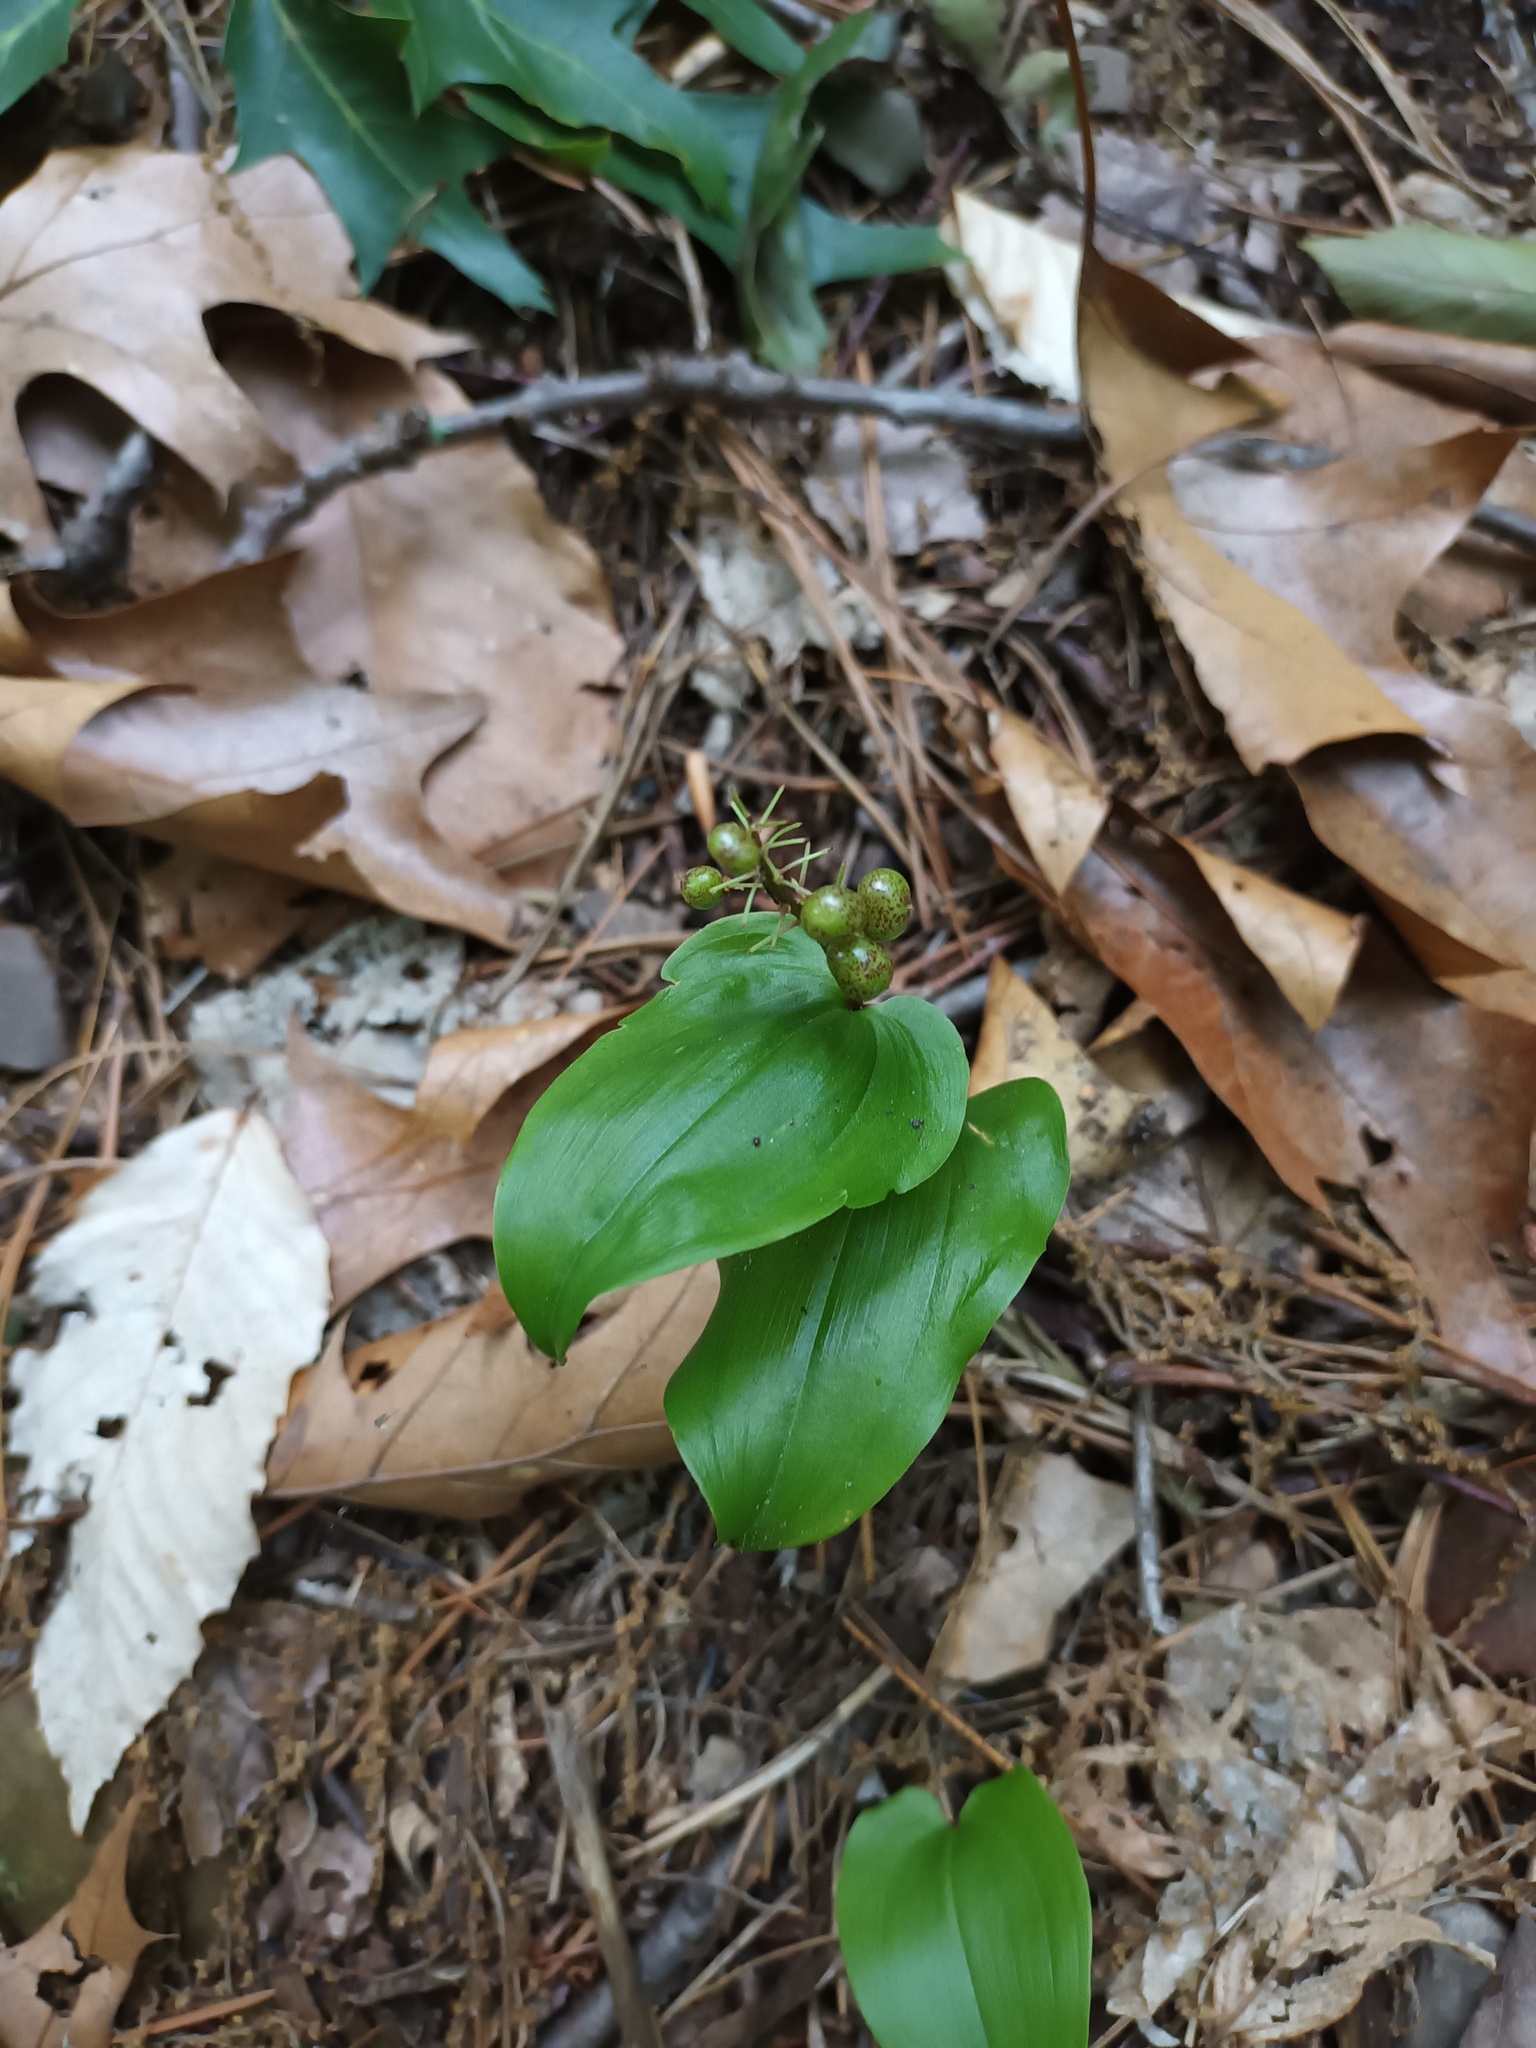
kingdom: Plantae
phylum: Tracheophyta
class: Liliopsida
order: Asparagales
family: Asparagaceae
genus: Maianthemum
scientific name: Maianthemum canadense
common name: False lily-of-the-valley
